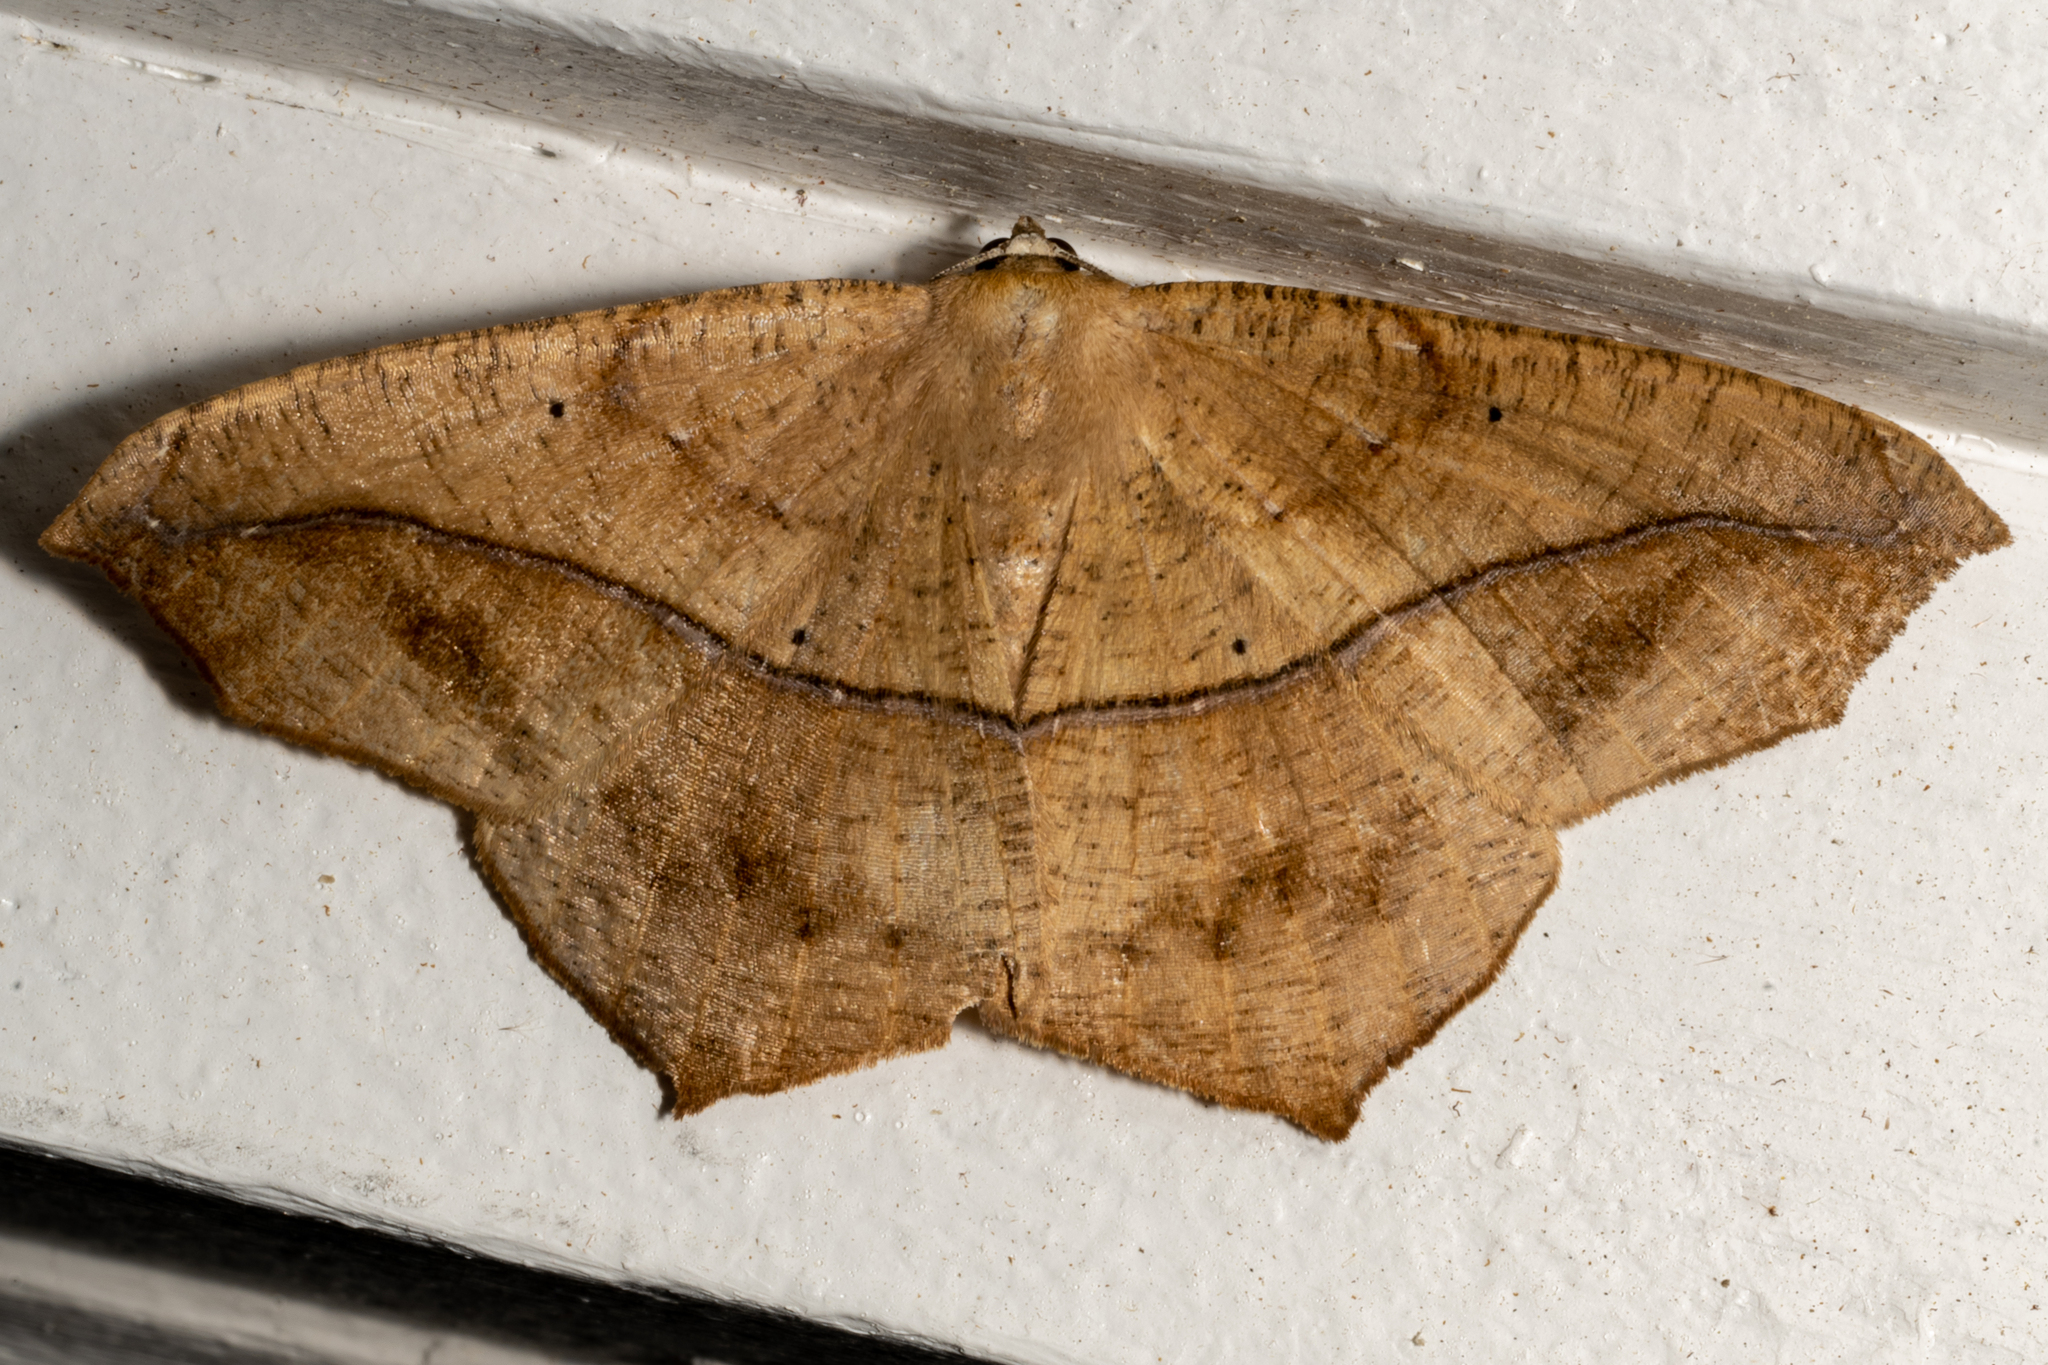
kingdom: Animalia
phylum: Arthropoda
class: Insecta
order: Lepidoptera
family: Geometridae
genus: Prochoerodes
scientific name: Prochoerodes lineola
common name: Large maple spanworm
